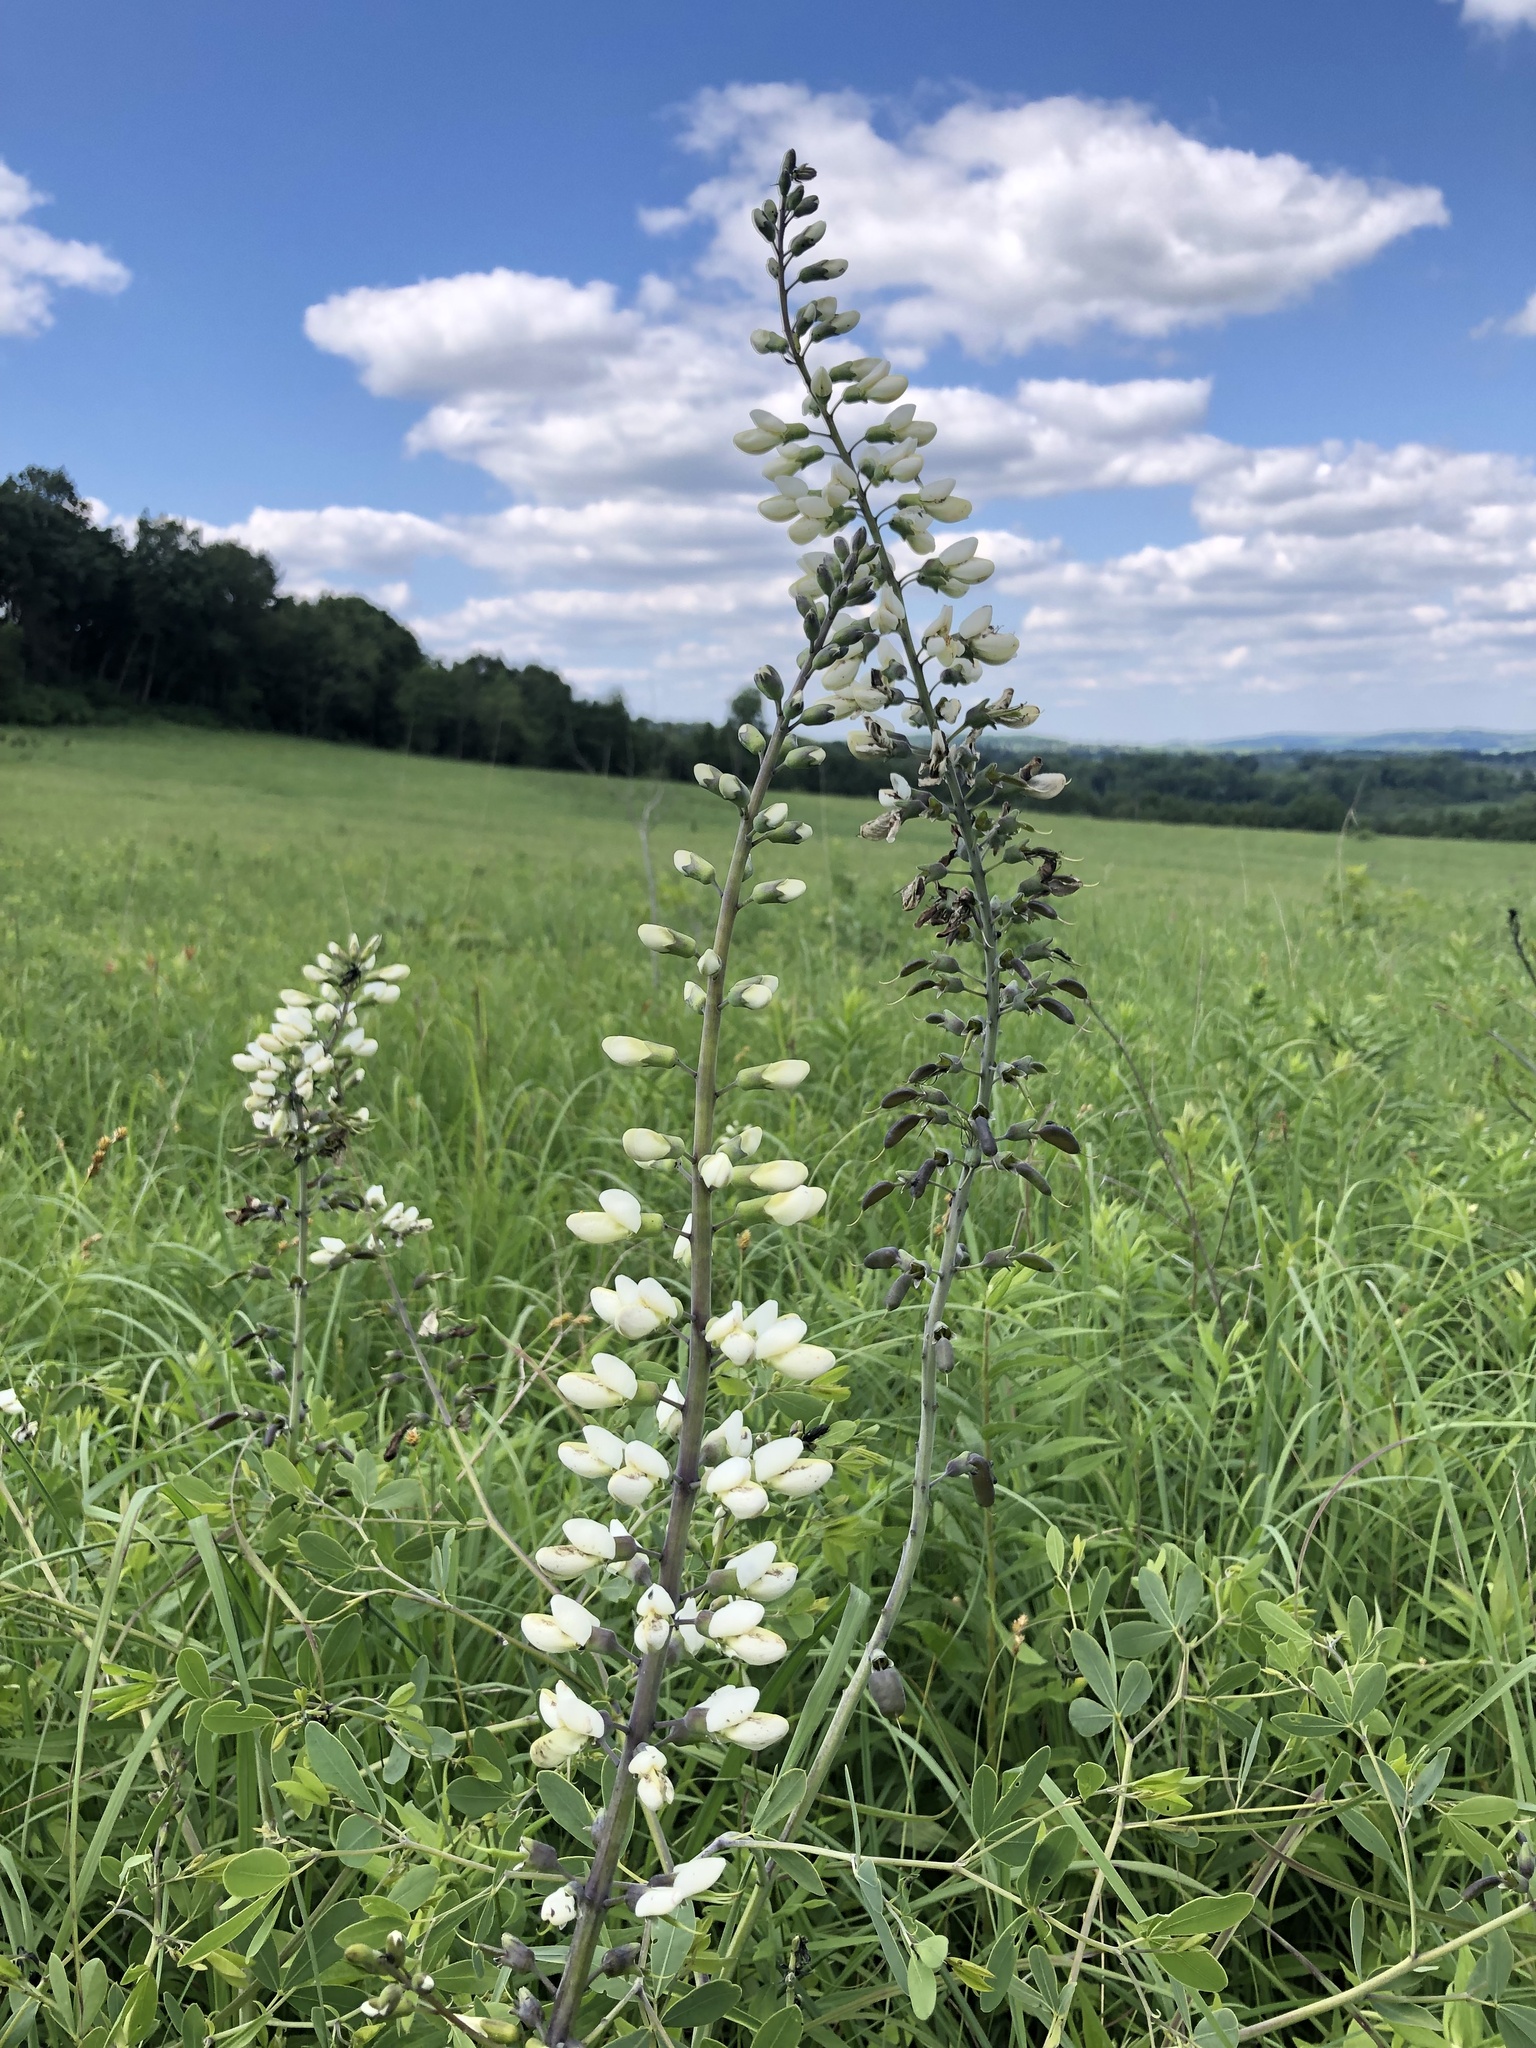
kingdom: Plantae
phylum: Tracheophyta
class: Magnoliopsida
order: Fabales
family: Fabaceae
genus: Baptisia
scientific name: Baptisia alba
